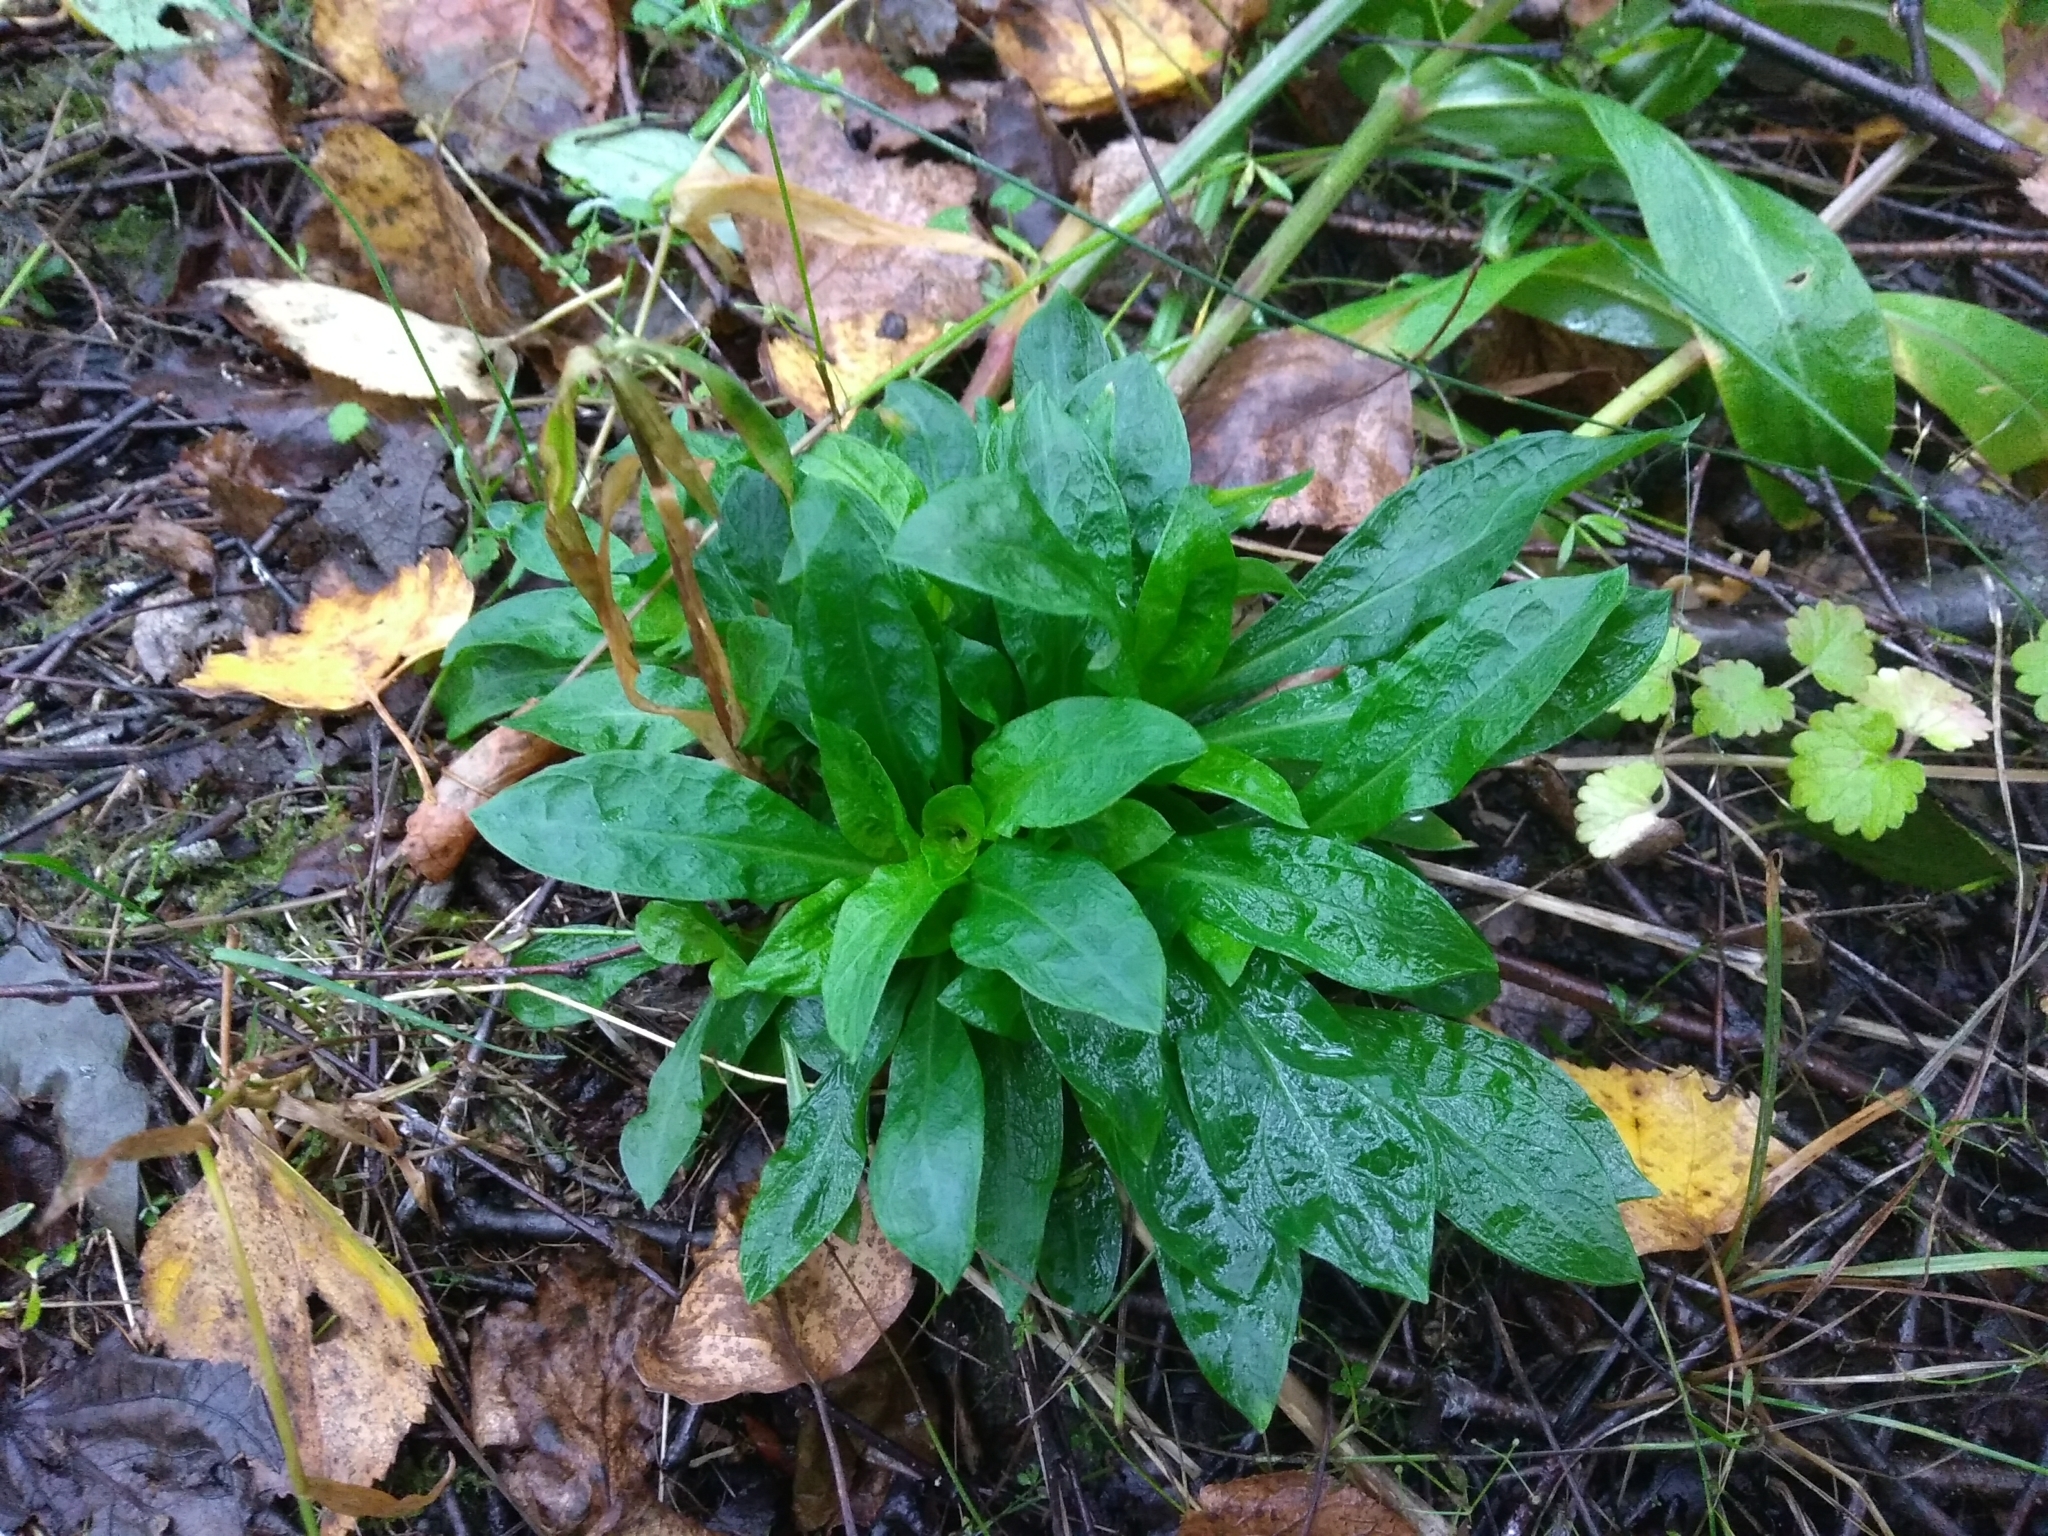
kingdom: Plantae
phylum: Tracheophyta
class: Magnoliopsida
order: Caryophyllales
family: Caryophyllaceae
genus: Silene
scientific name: Silene flos-cuculi
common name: Ragged-robin
